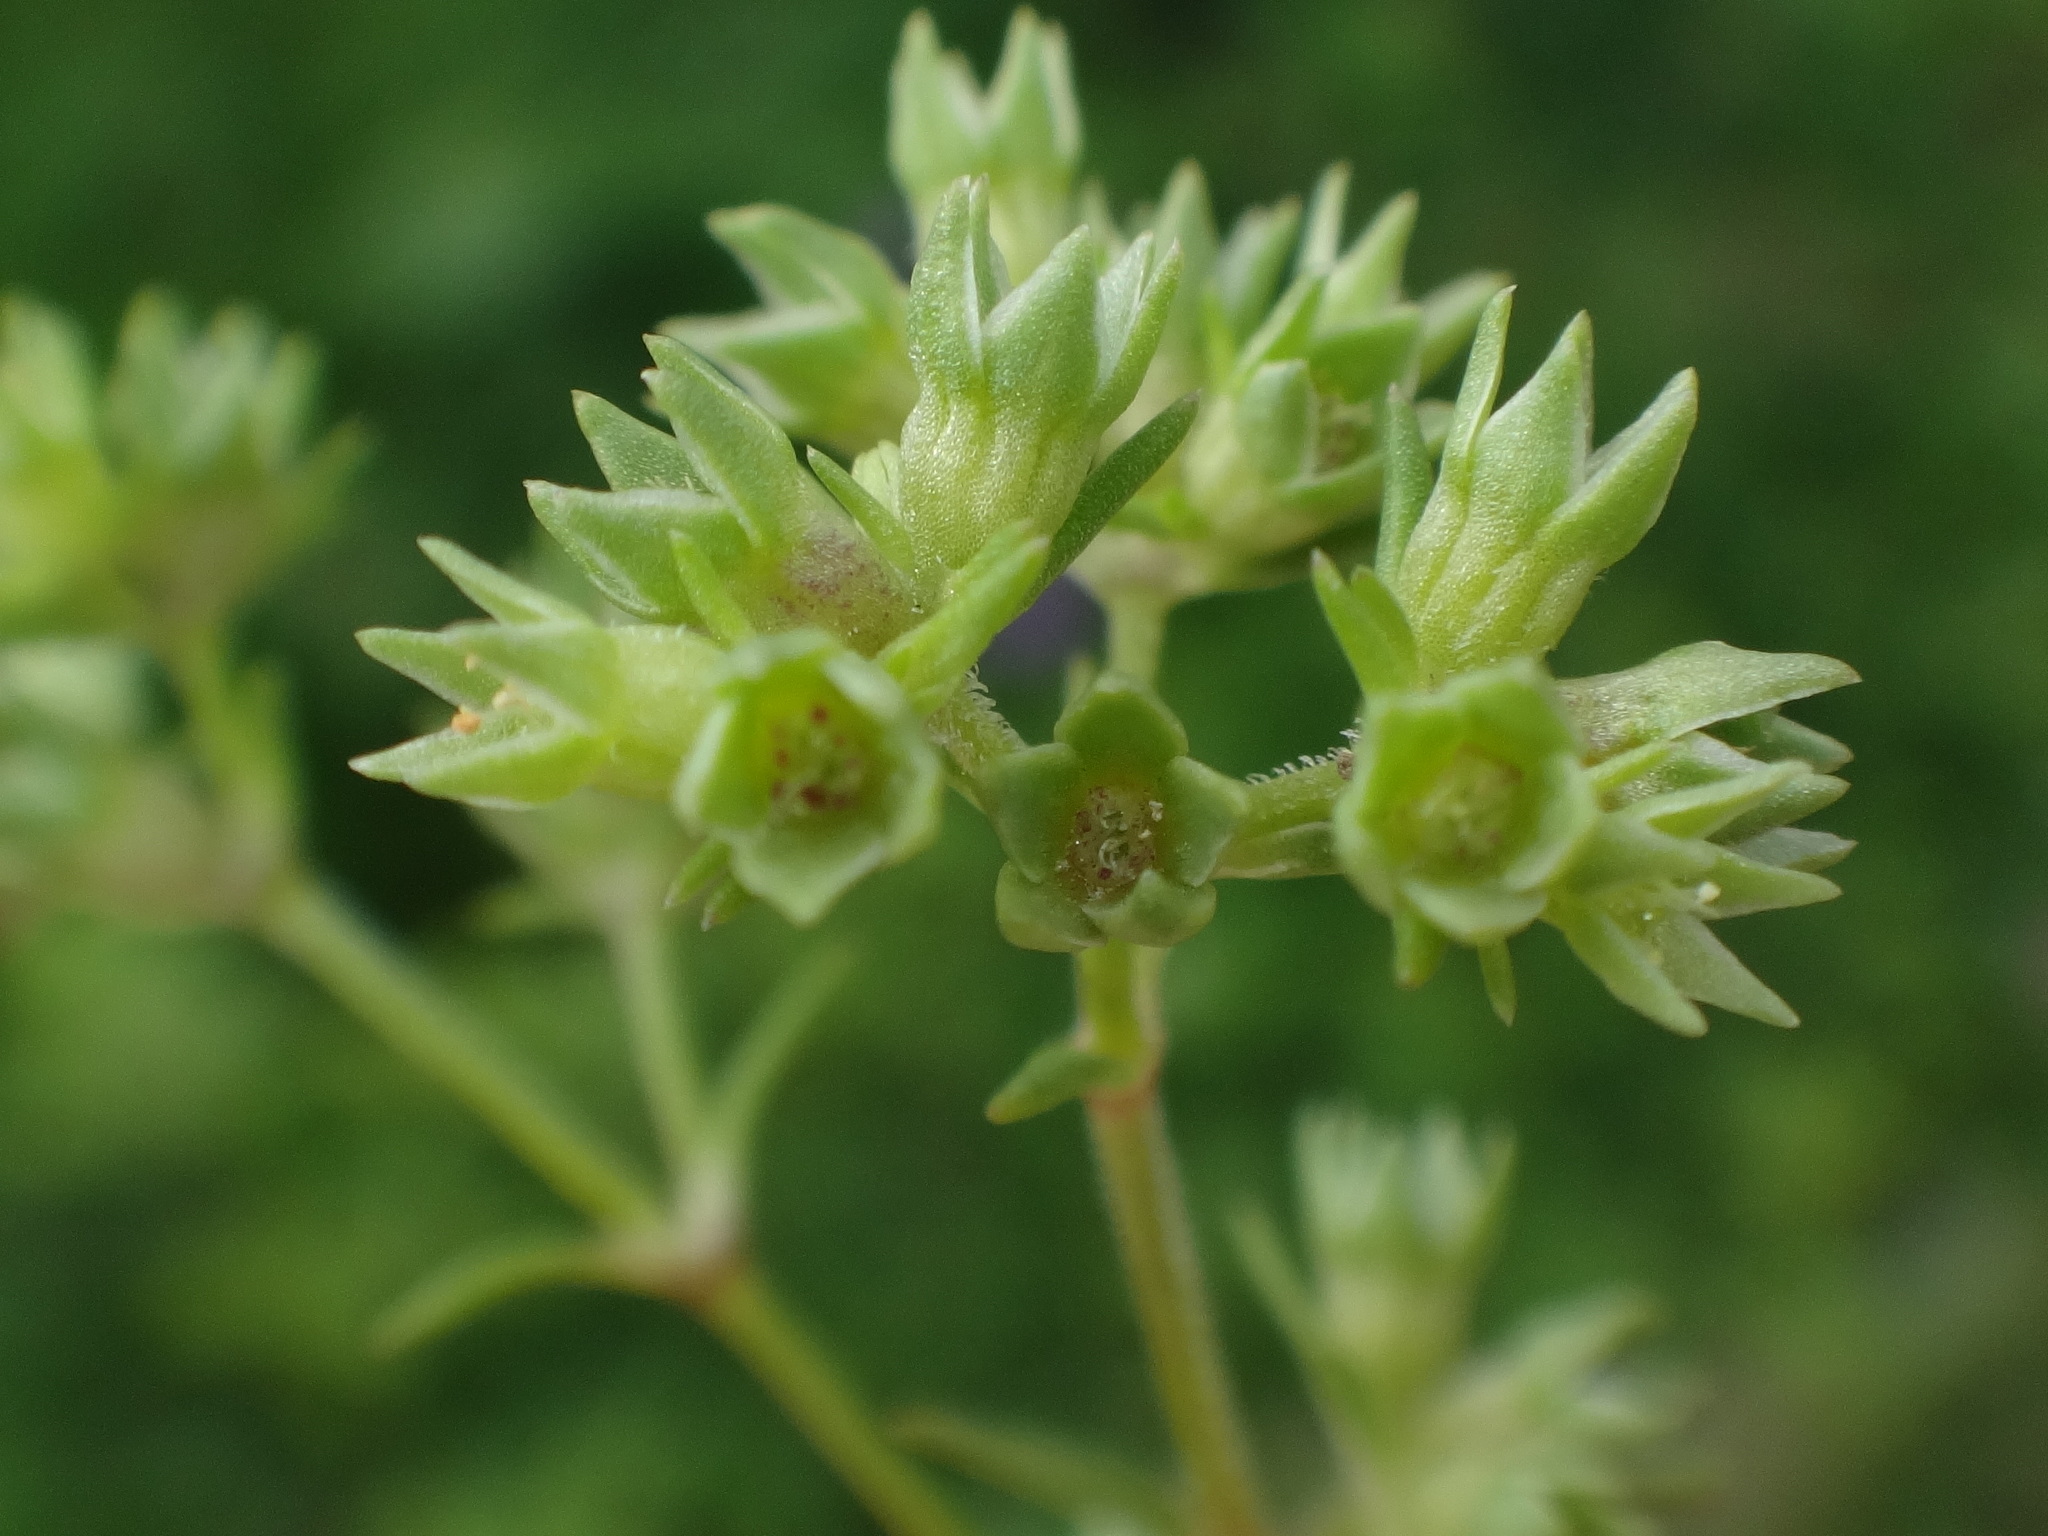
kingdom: Plantae
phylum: Tracheophyta
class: Magnoliopsida
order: Caryophyllales
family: Caryophyllaceae
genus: Scleranthus
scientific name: Scleranthus annuus
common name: Annual knawel
